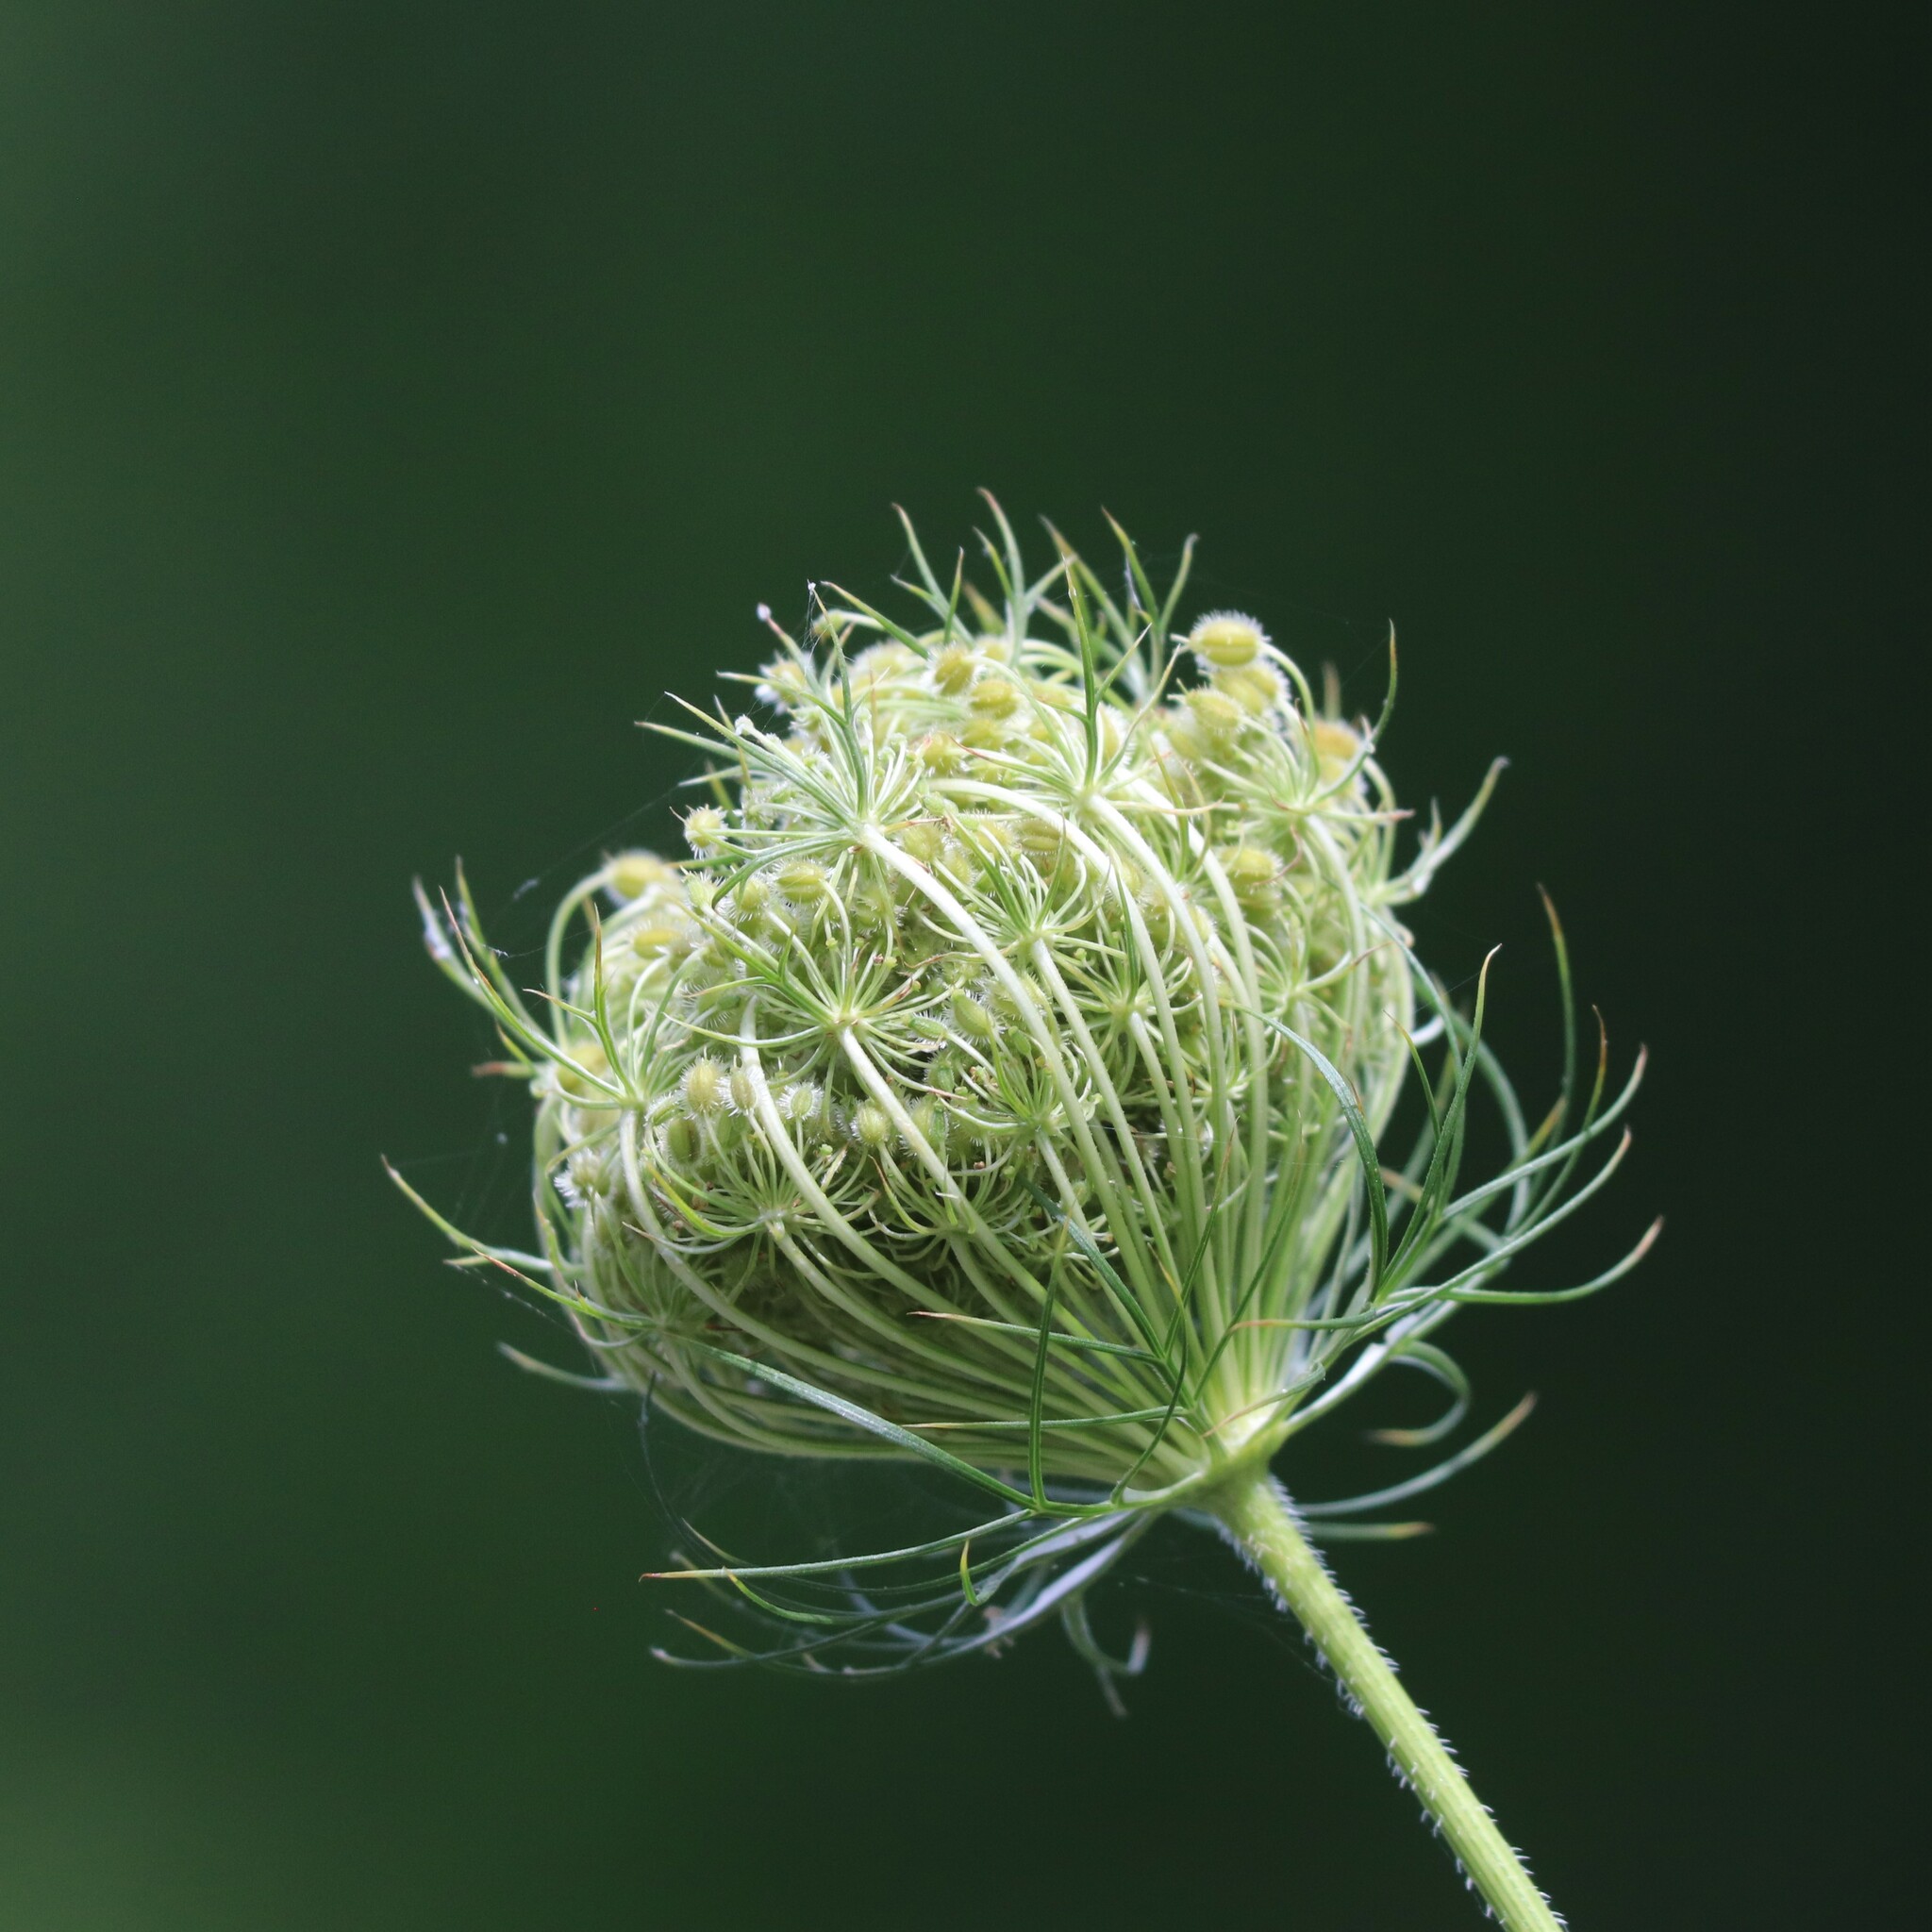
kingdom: Plantae
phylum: Tracheophyta
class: Magnoliopsida
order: Apiales
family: Apiaceae
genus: Daucus
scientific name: Daucus carota
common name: Wild carrot
